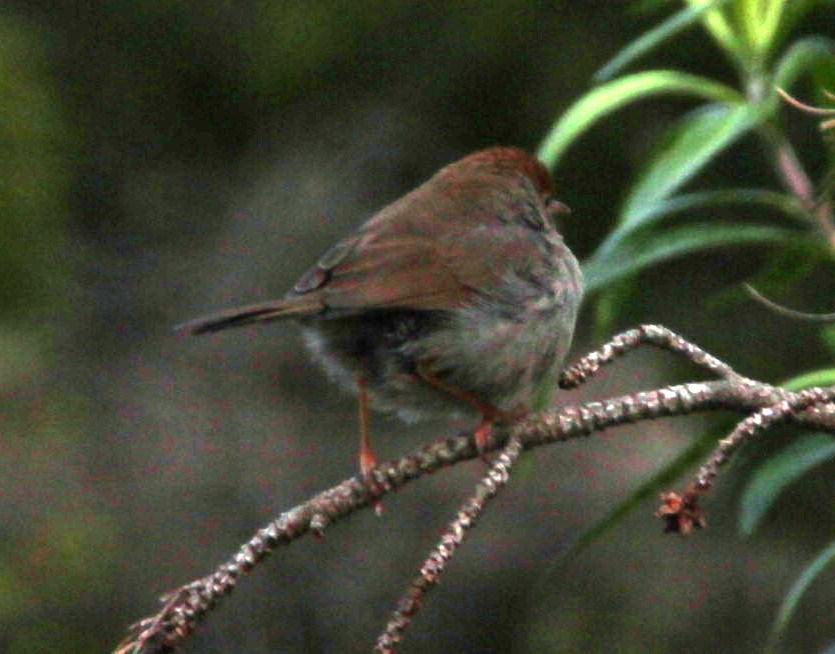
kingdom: Animalia
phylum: Chordata
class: Aves
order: Passeriformes
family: Cisticolidae
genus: Cisticola
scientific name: Cisticola fulvicapilla
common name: Neddicky
